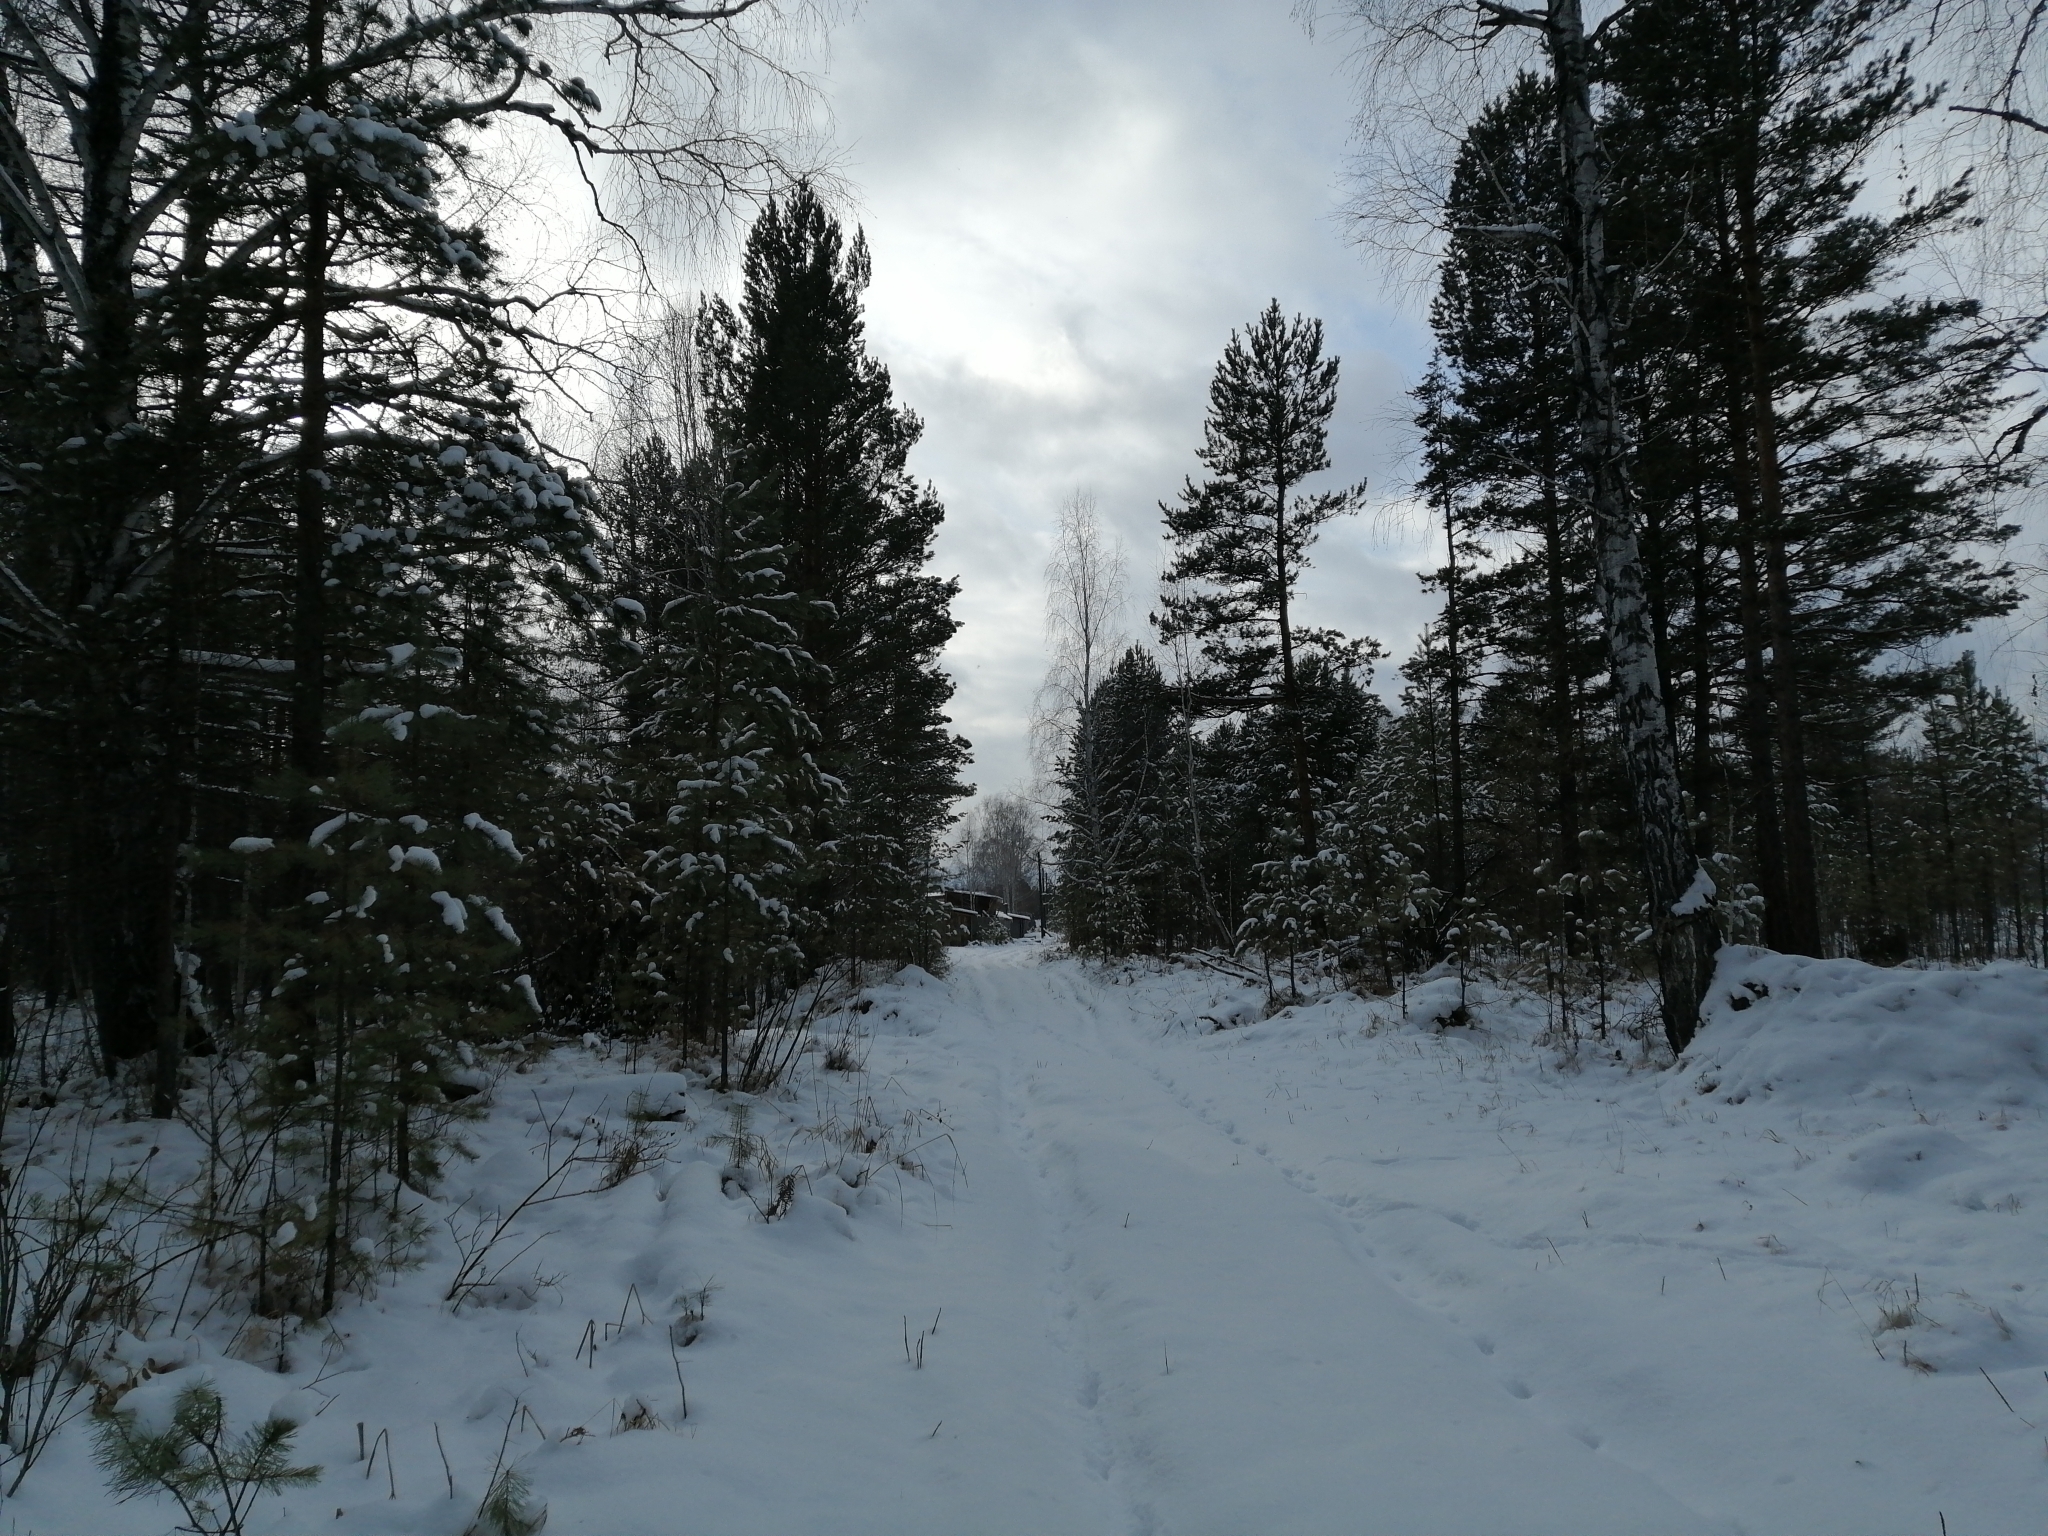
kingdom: Plantae
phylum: Tracheophyta
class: Pinopsida
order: Pinales
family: Pinaceae
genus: Pinus
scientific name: Pinus sylvestris
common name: Scots pine
